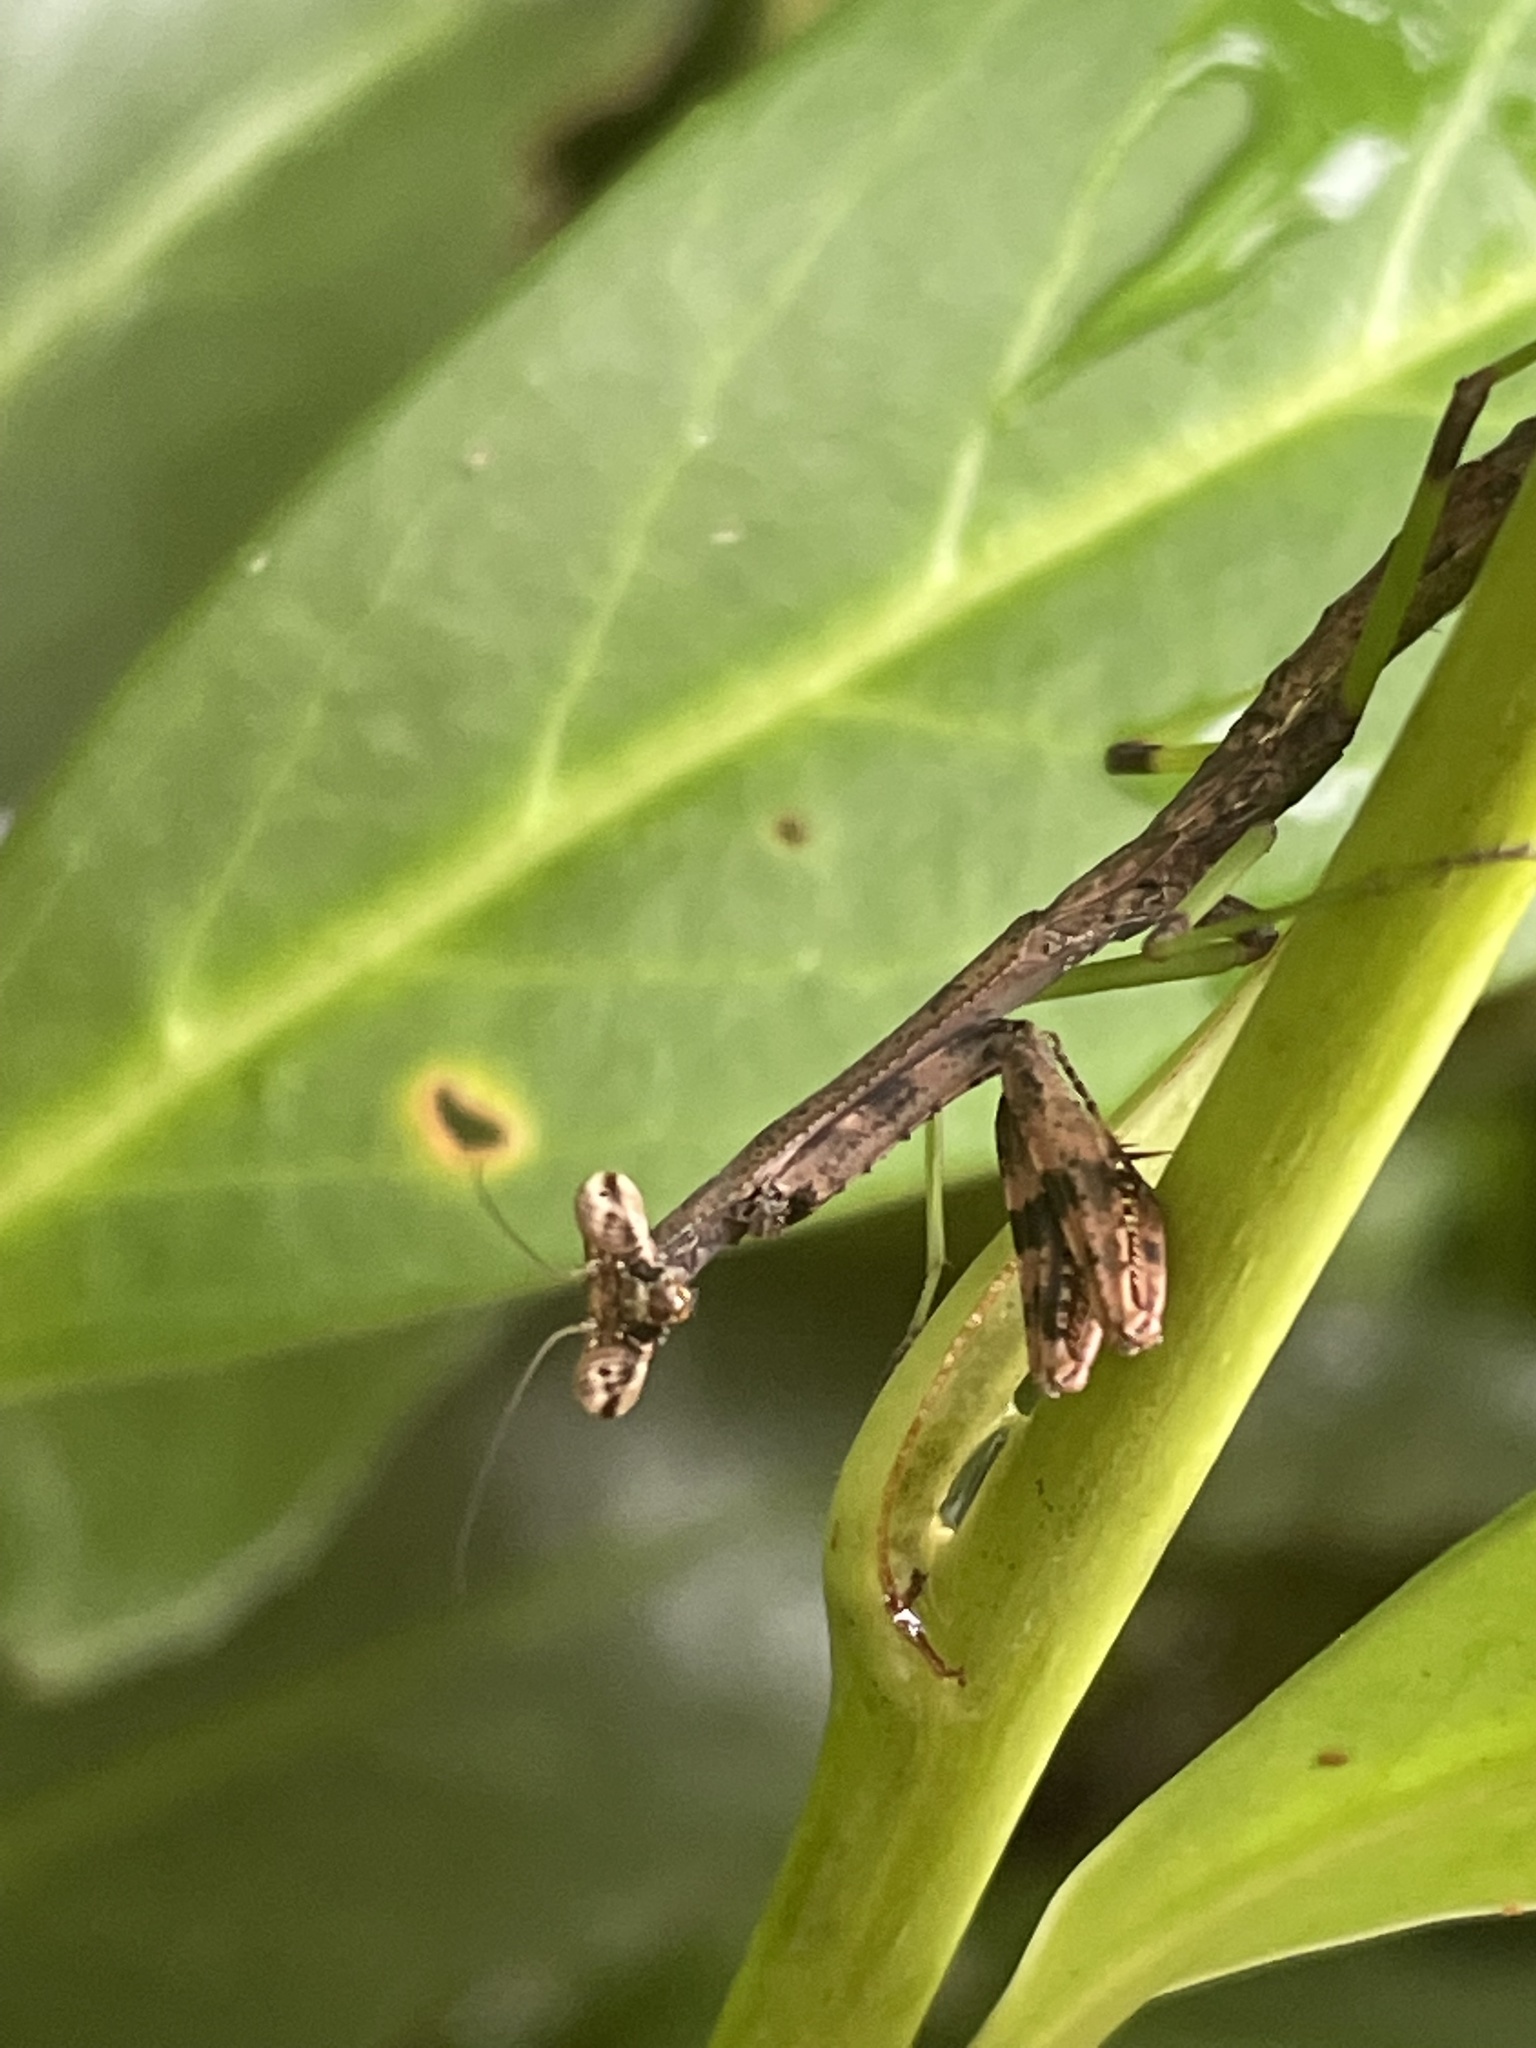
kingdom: Animalia
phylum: Arthropoda
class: Insecta
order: Mantodea
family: Mantidae
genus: Stagmomantis
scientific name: Stagmomantis carolina
